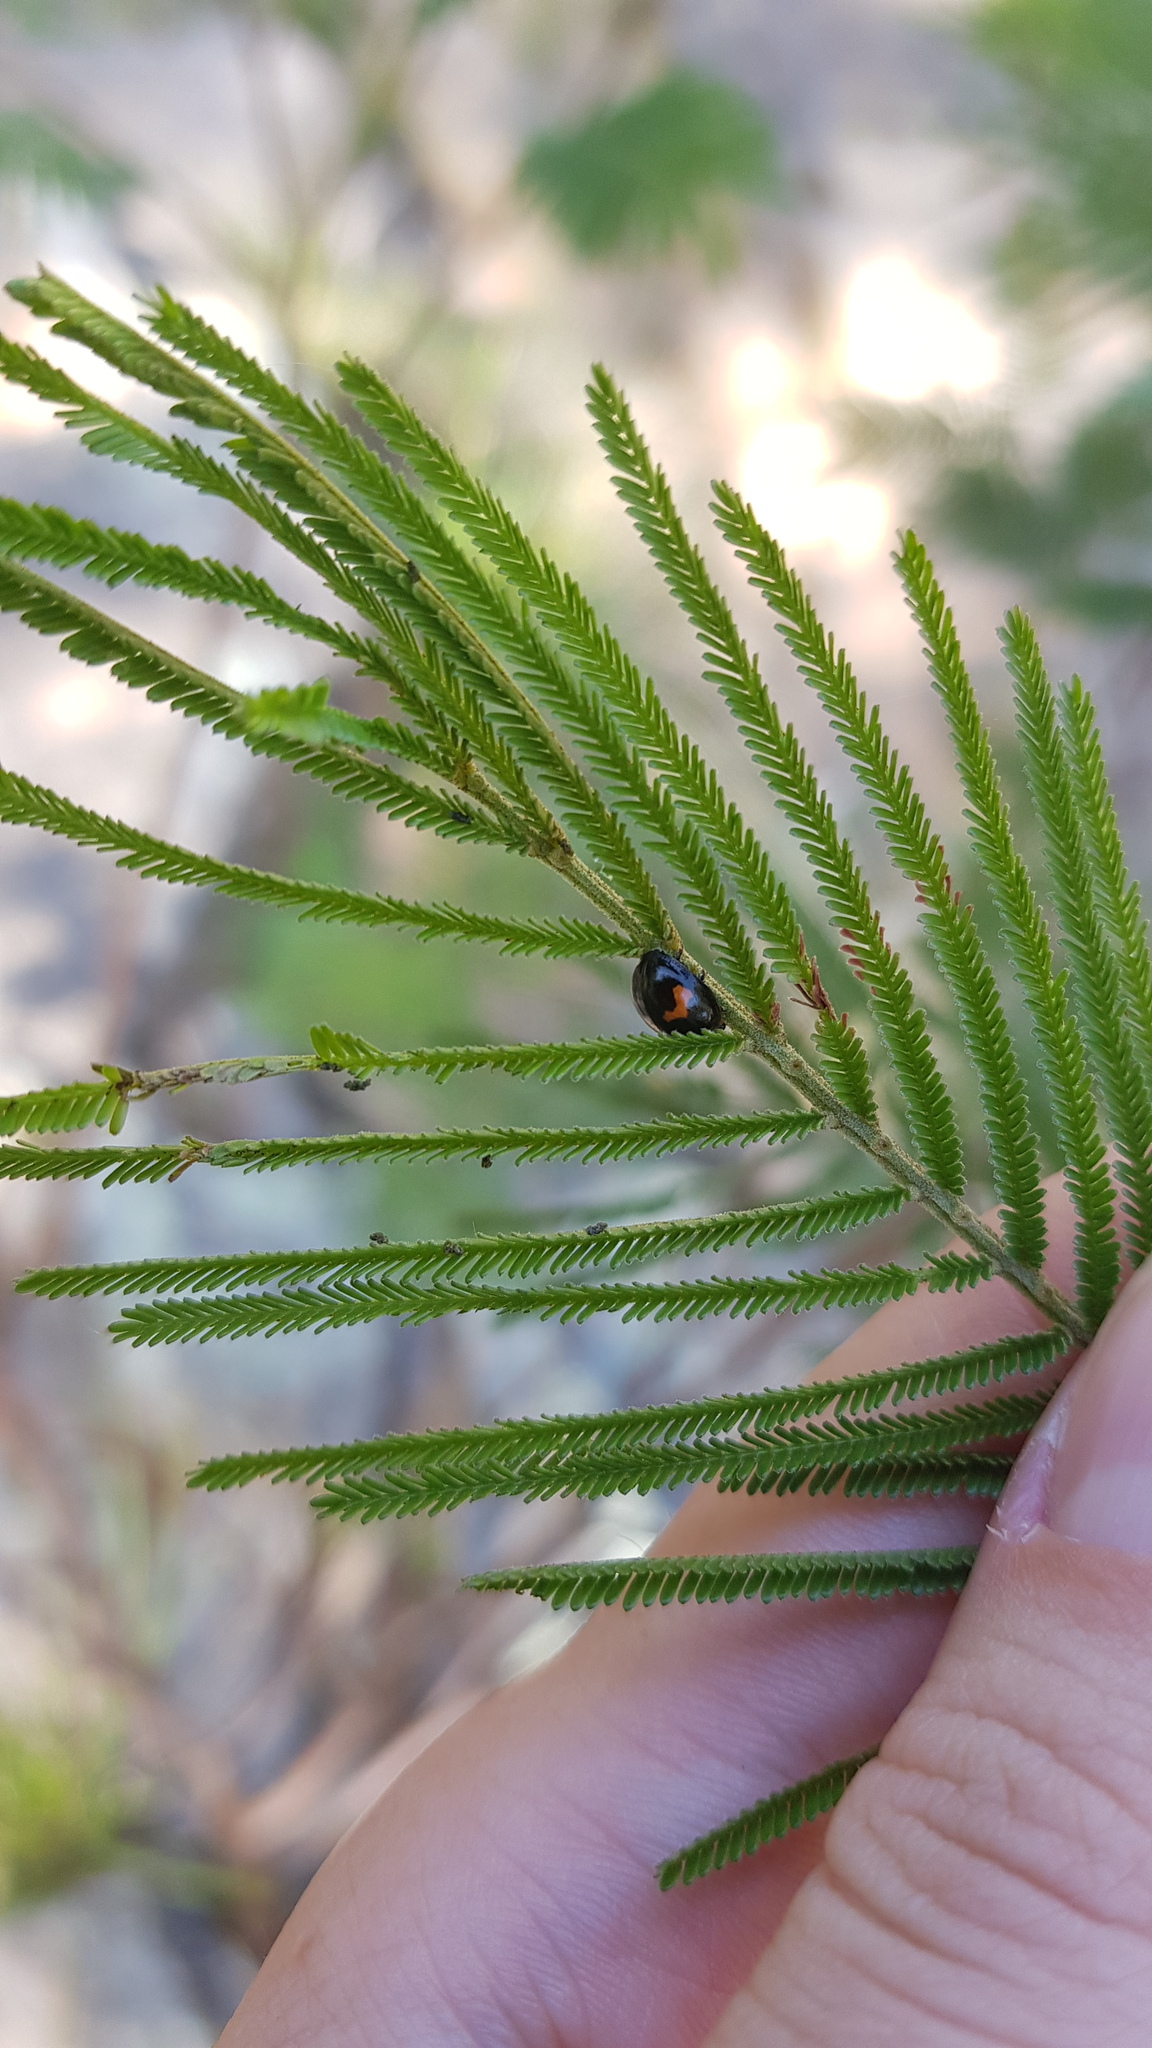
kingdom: Animalia
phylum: Arthropoda
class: Insecta
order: Coleoptera
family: Chrysomelidae
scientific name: Chrysomelidae
